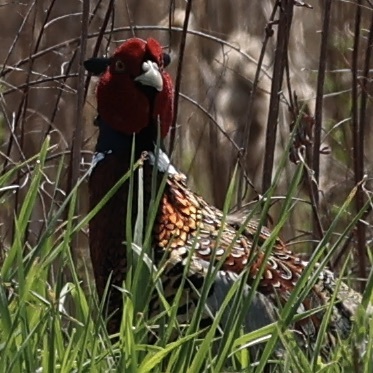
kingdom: Animalia
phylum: Chordata
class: Aves
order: Galliformes
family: Phasianidae
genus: Phasianus
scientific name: Phasianus colchicus
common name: Common pheasant
